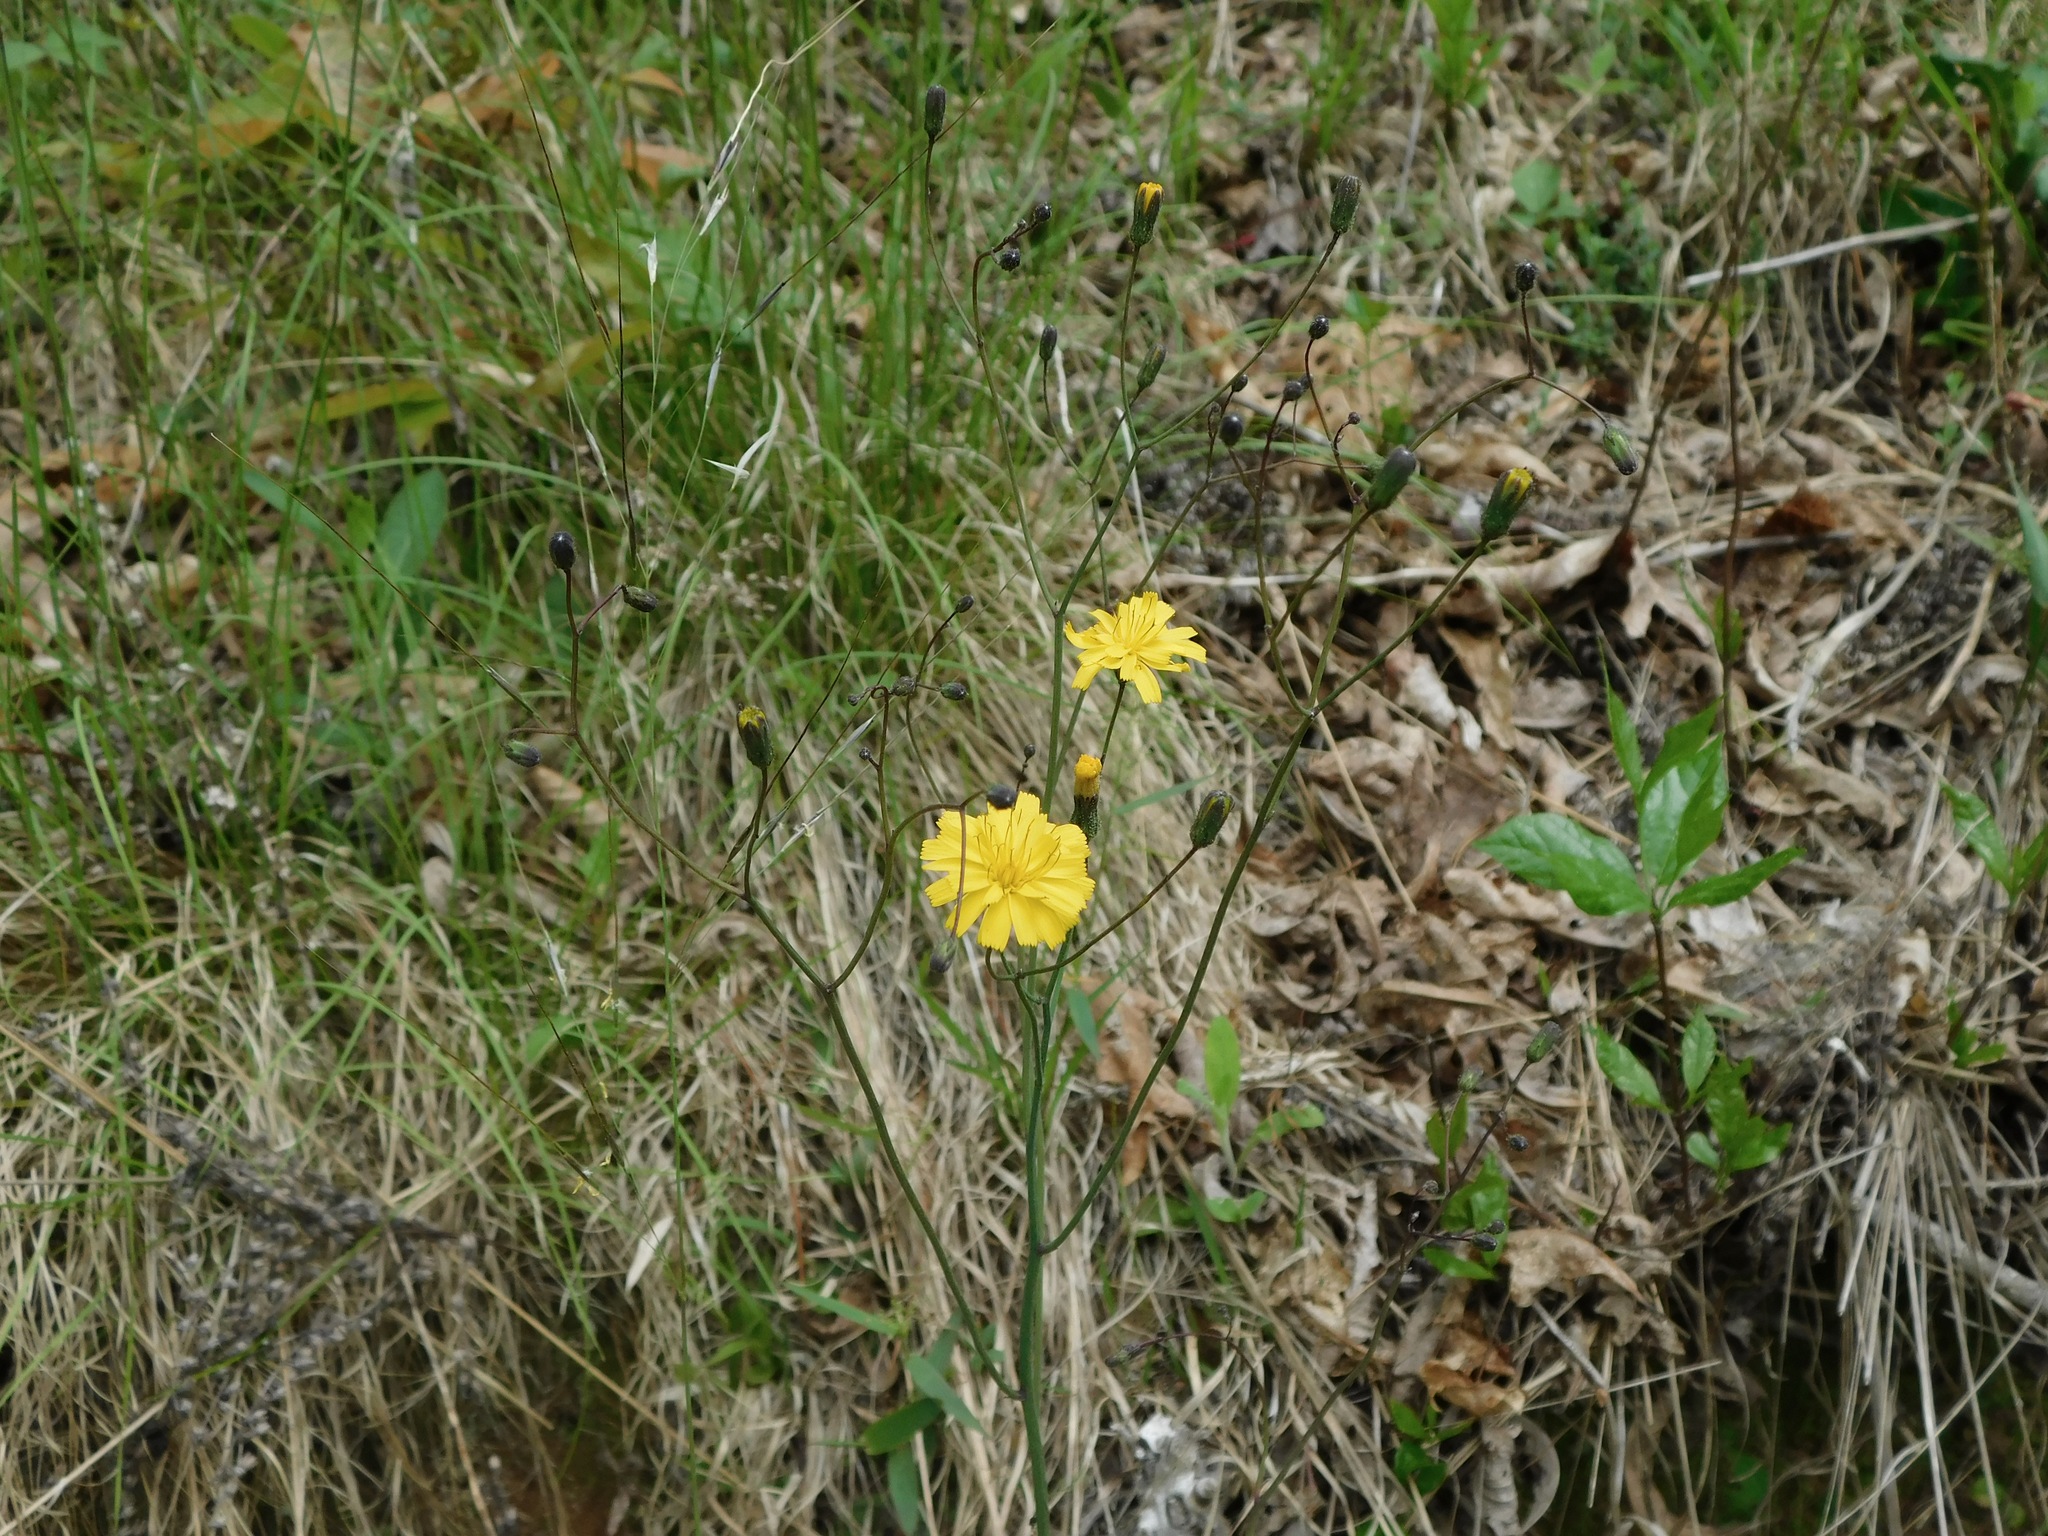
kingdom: Plantae
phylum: Tracheophyta
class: Magnoliopsida
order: Asterales
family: Asteraceae
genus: Hieracium
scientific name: Hieracium venosum
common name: Rattlesnake hawkweed
